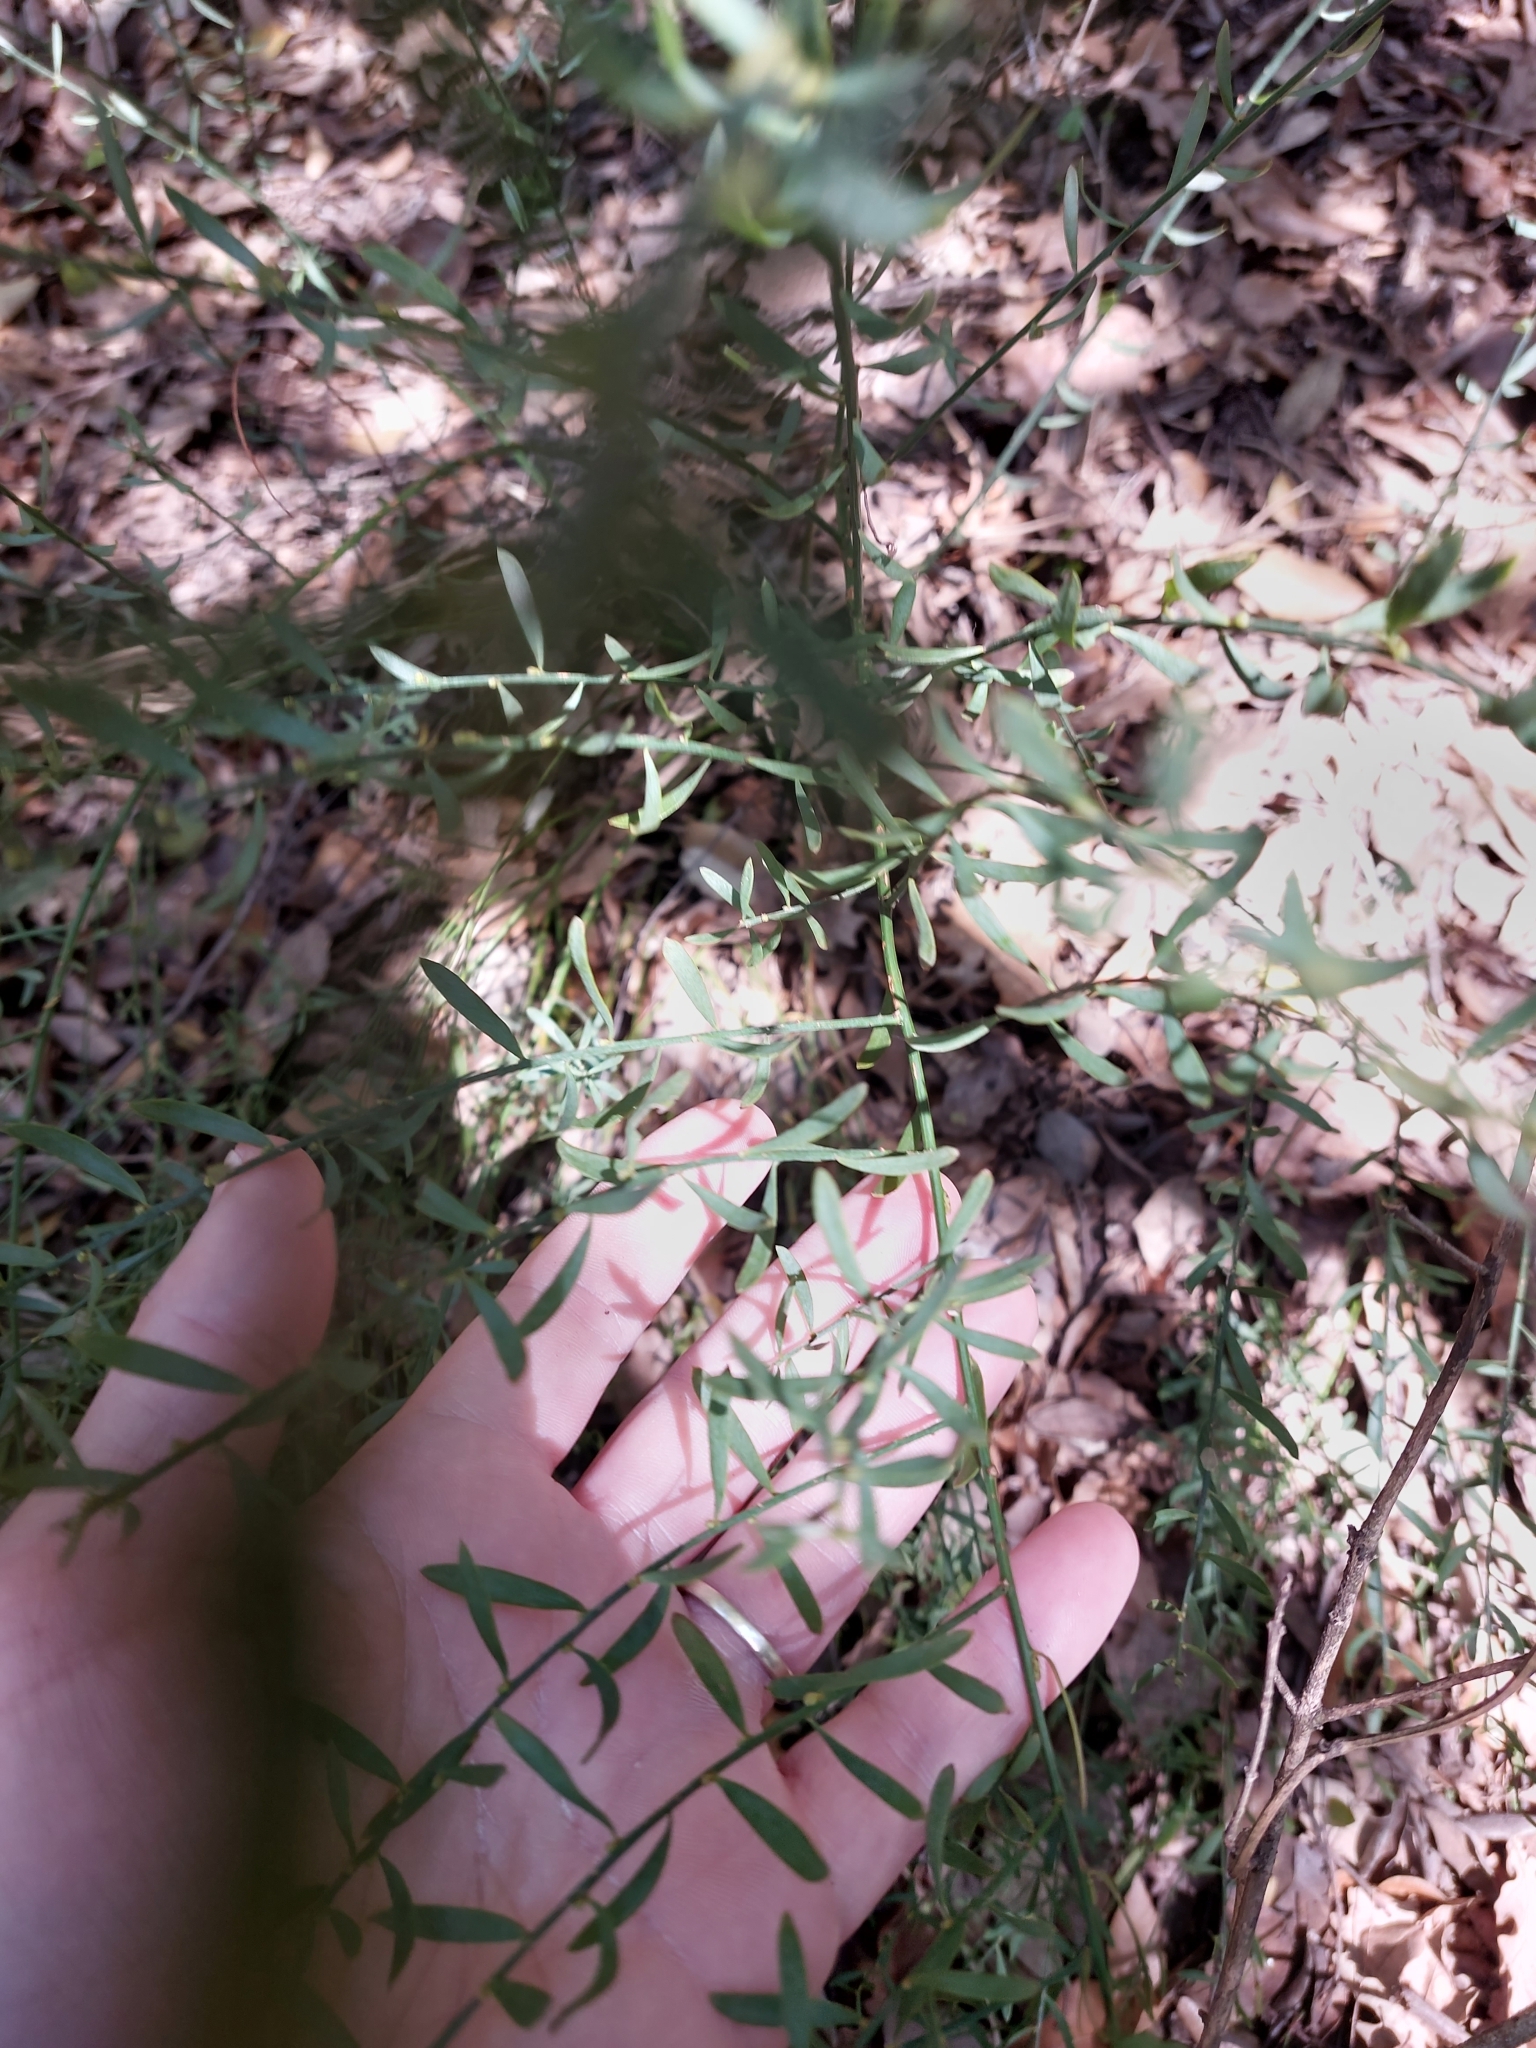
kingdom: Plantae
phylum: Tracheophyta
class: Magnoliopsida
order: Santalales
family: Santalaceae
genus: Osyris
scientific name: Osyris alba
